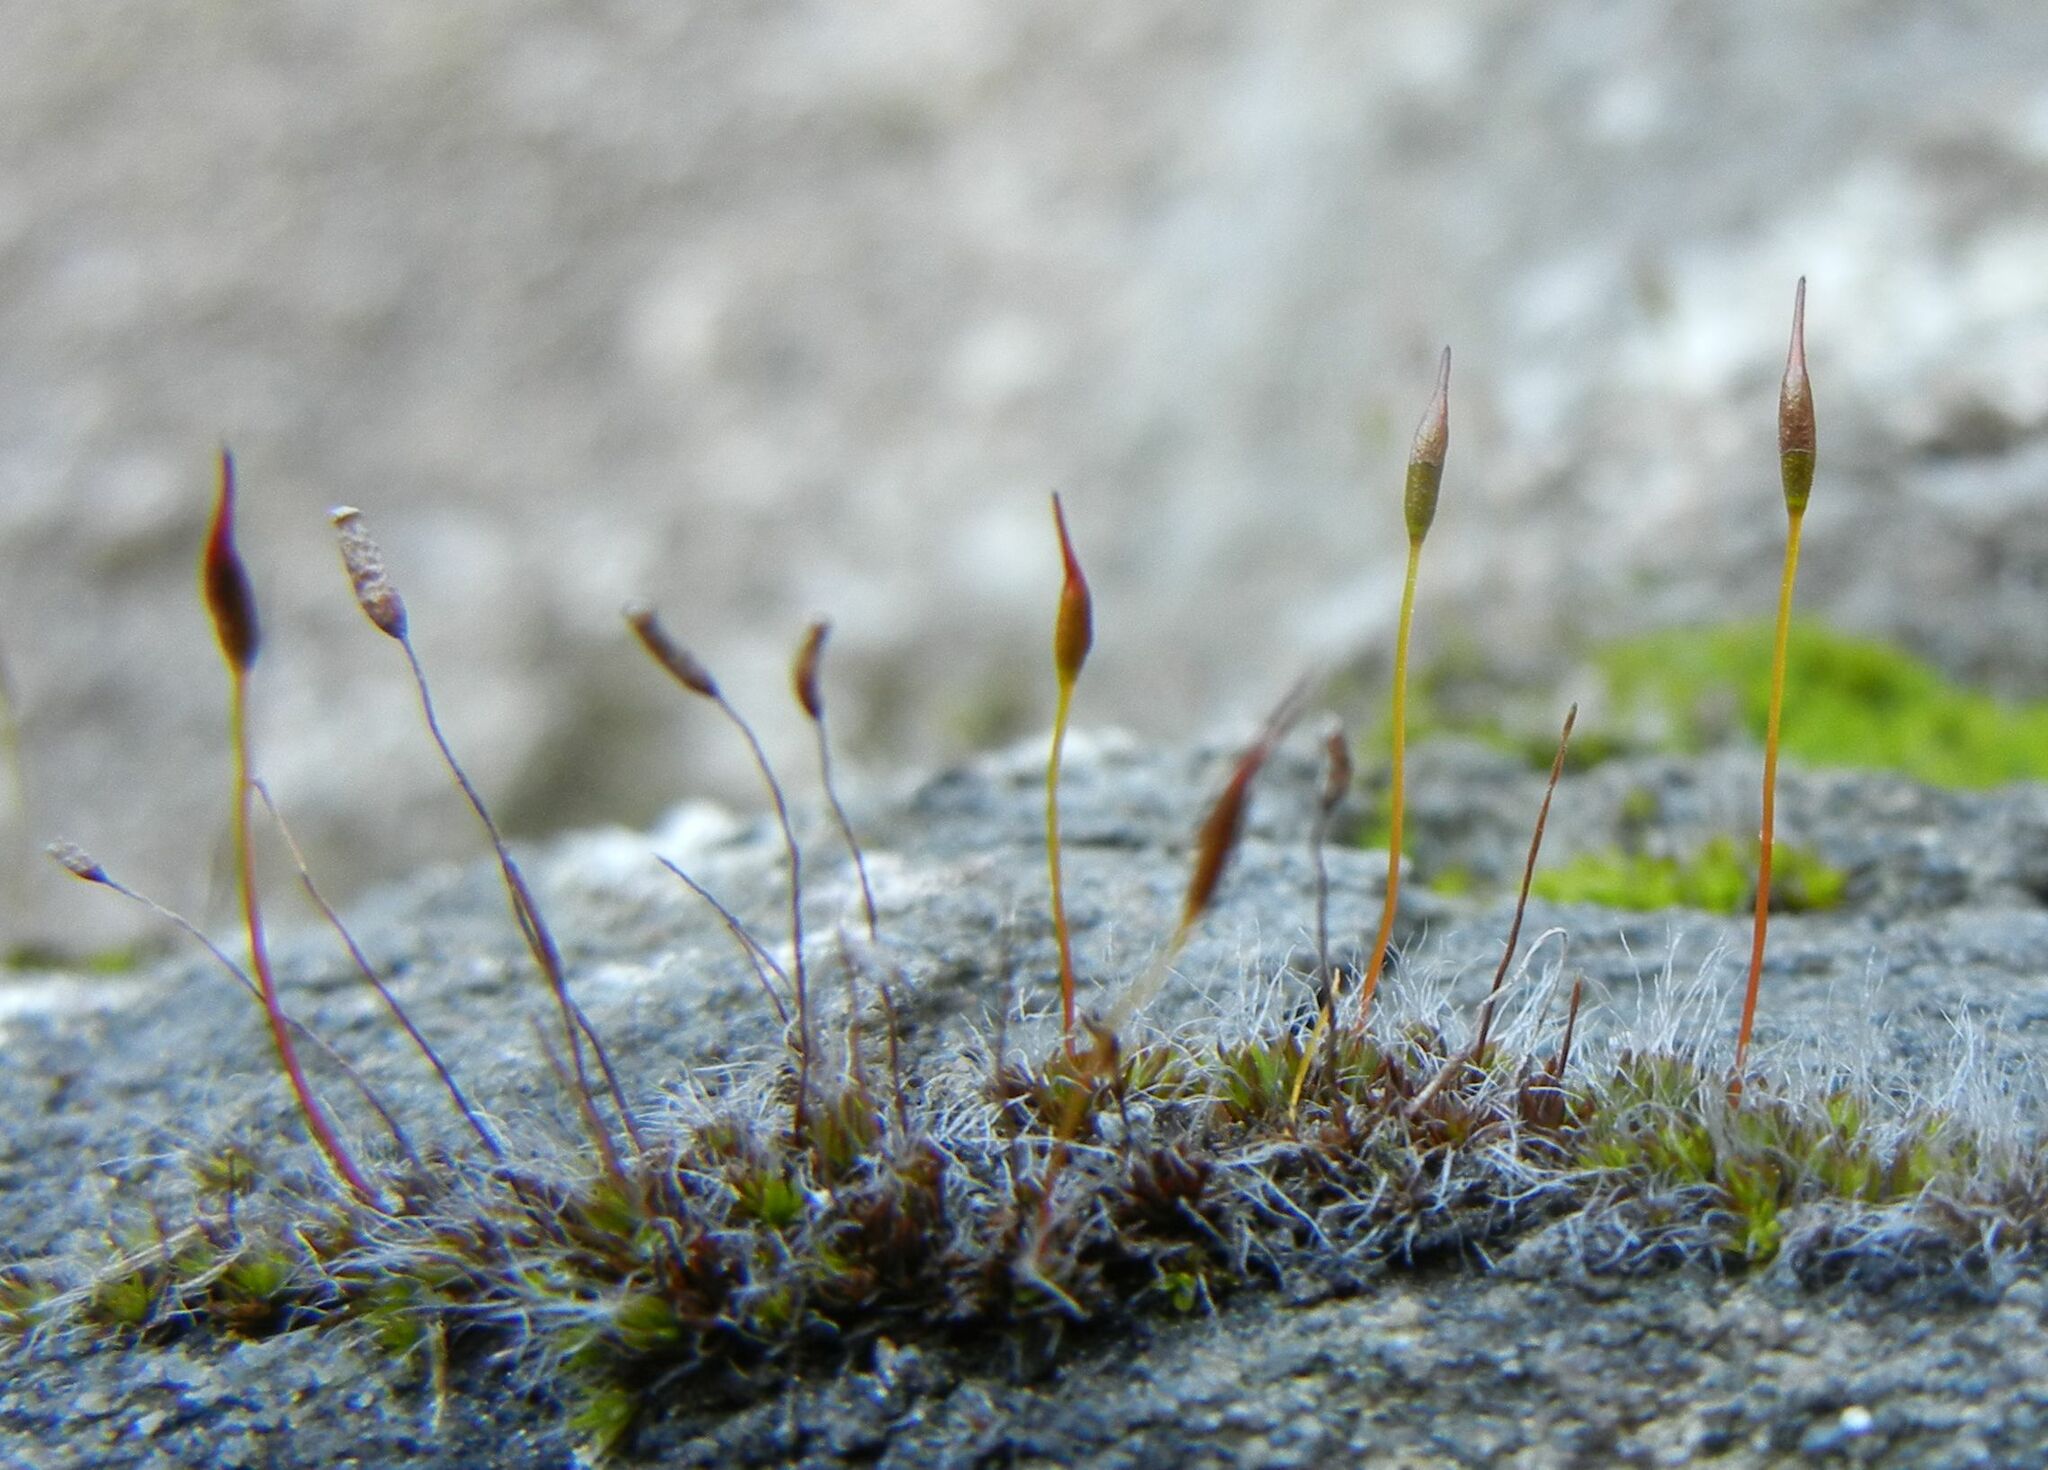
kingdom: Plantae
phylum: Bryophyta
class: Bryopsida
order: Pottiales
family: Pottiaceae
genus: Tortula
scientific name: Tortula muralis
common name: Wall screw-moss
